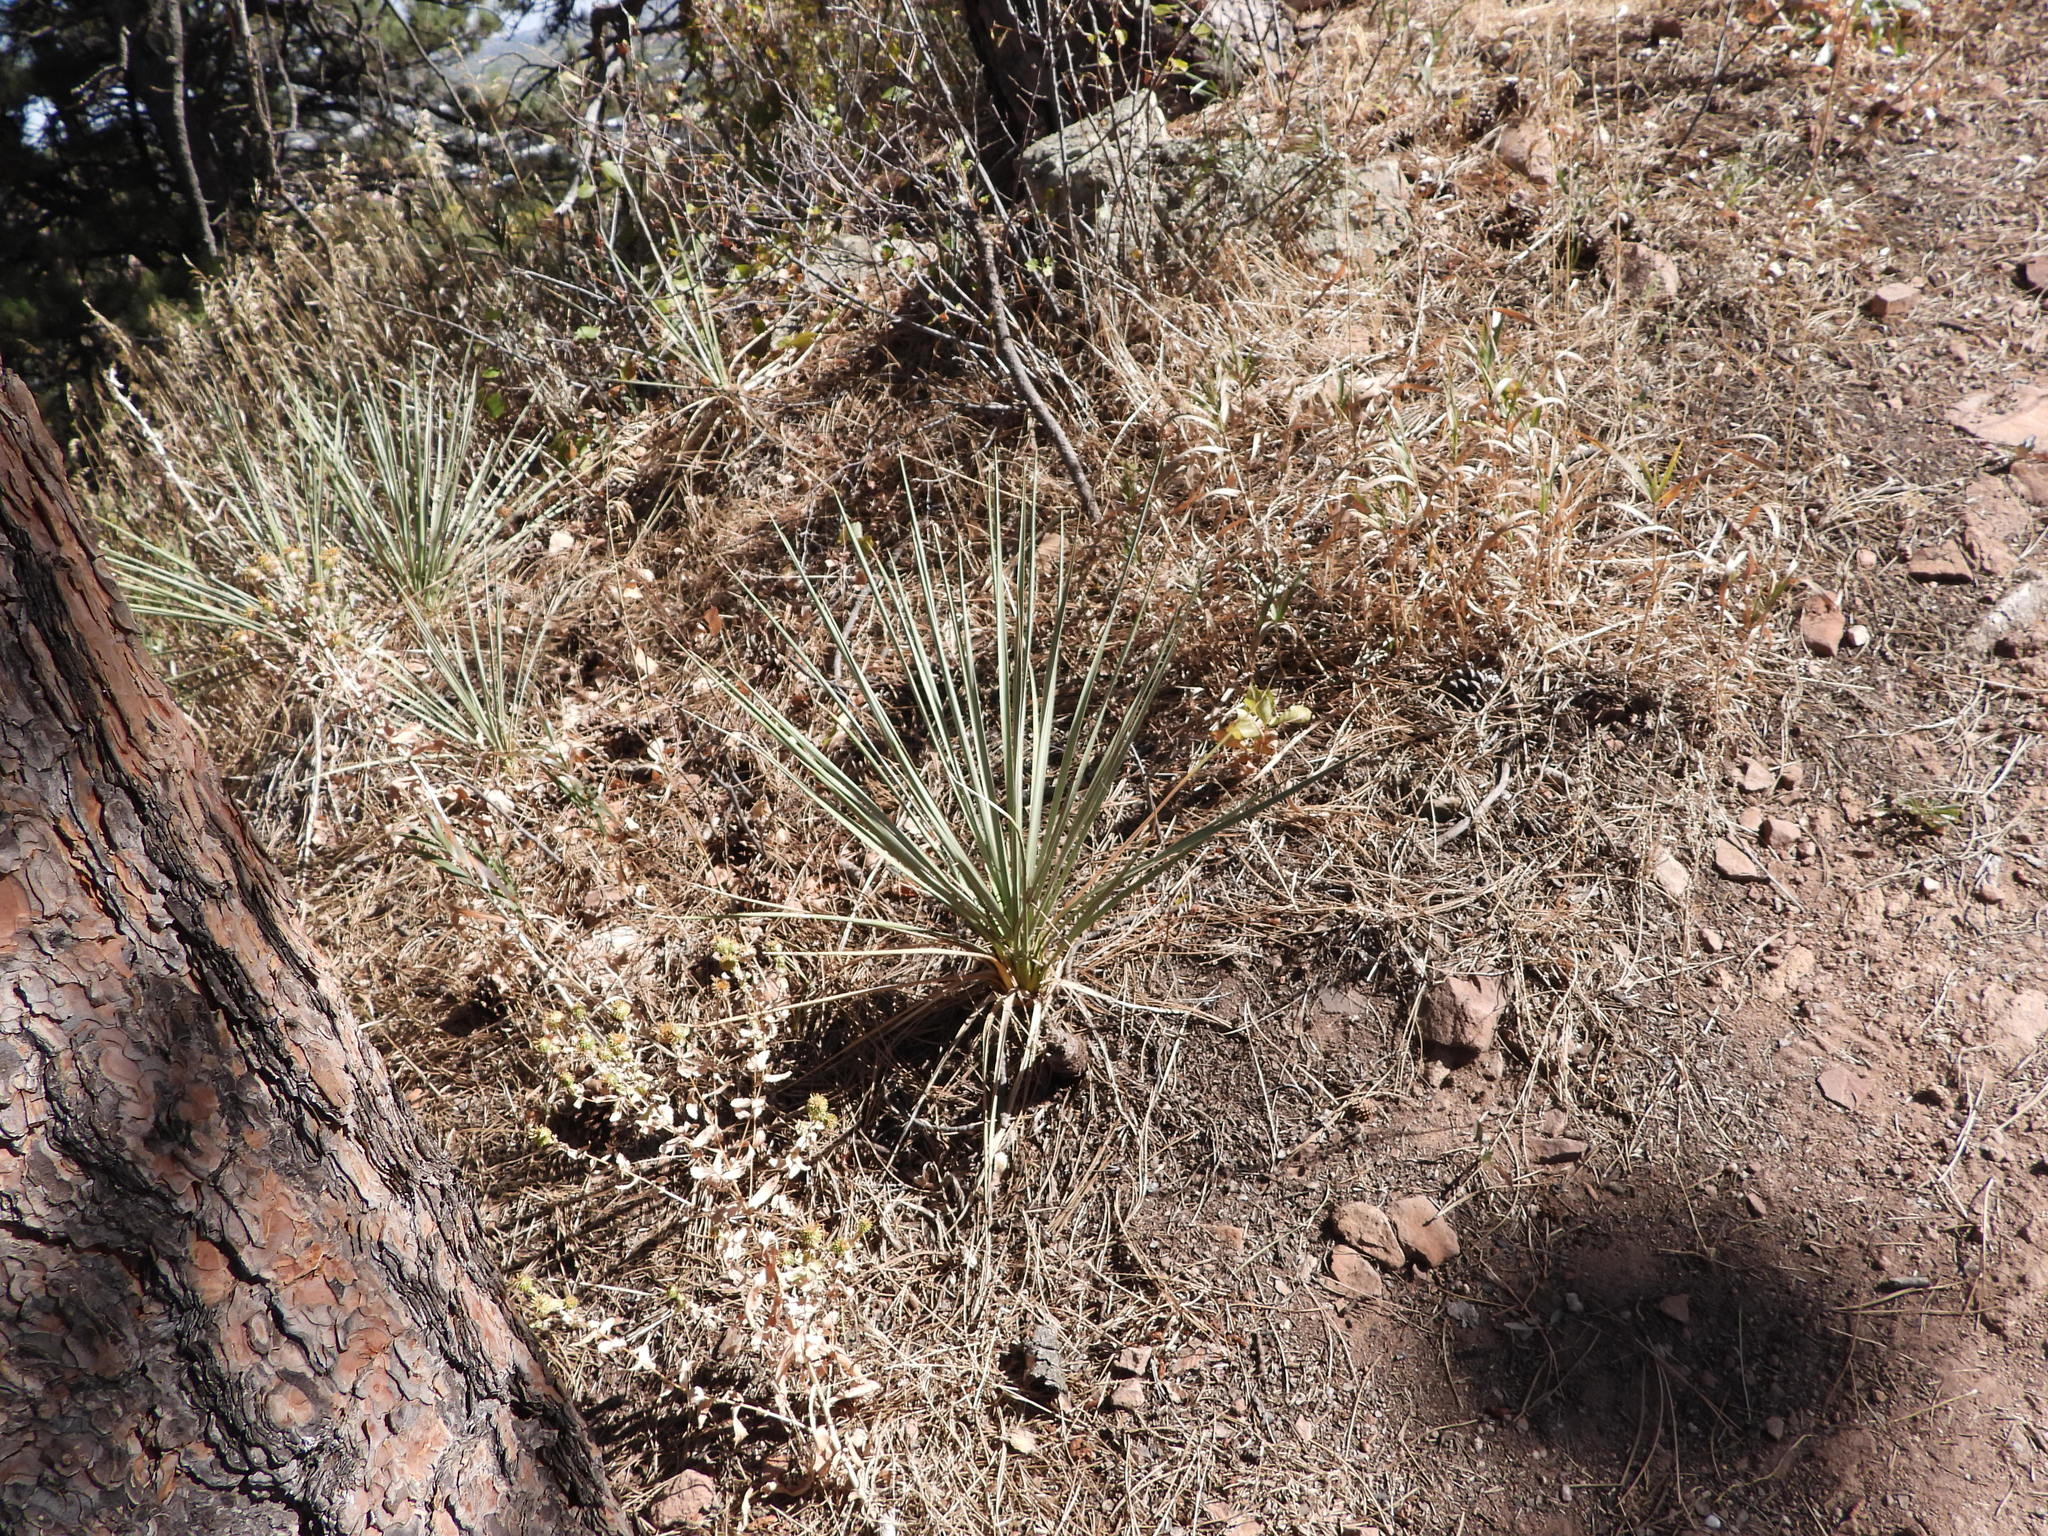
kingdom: Plantae
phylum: Tracheophyta
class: Liliopsida
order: Asparagales
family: Asparagaceae
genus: Yucca
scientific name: Yucca glauca
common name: Great plains yucca
